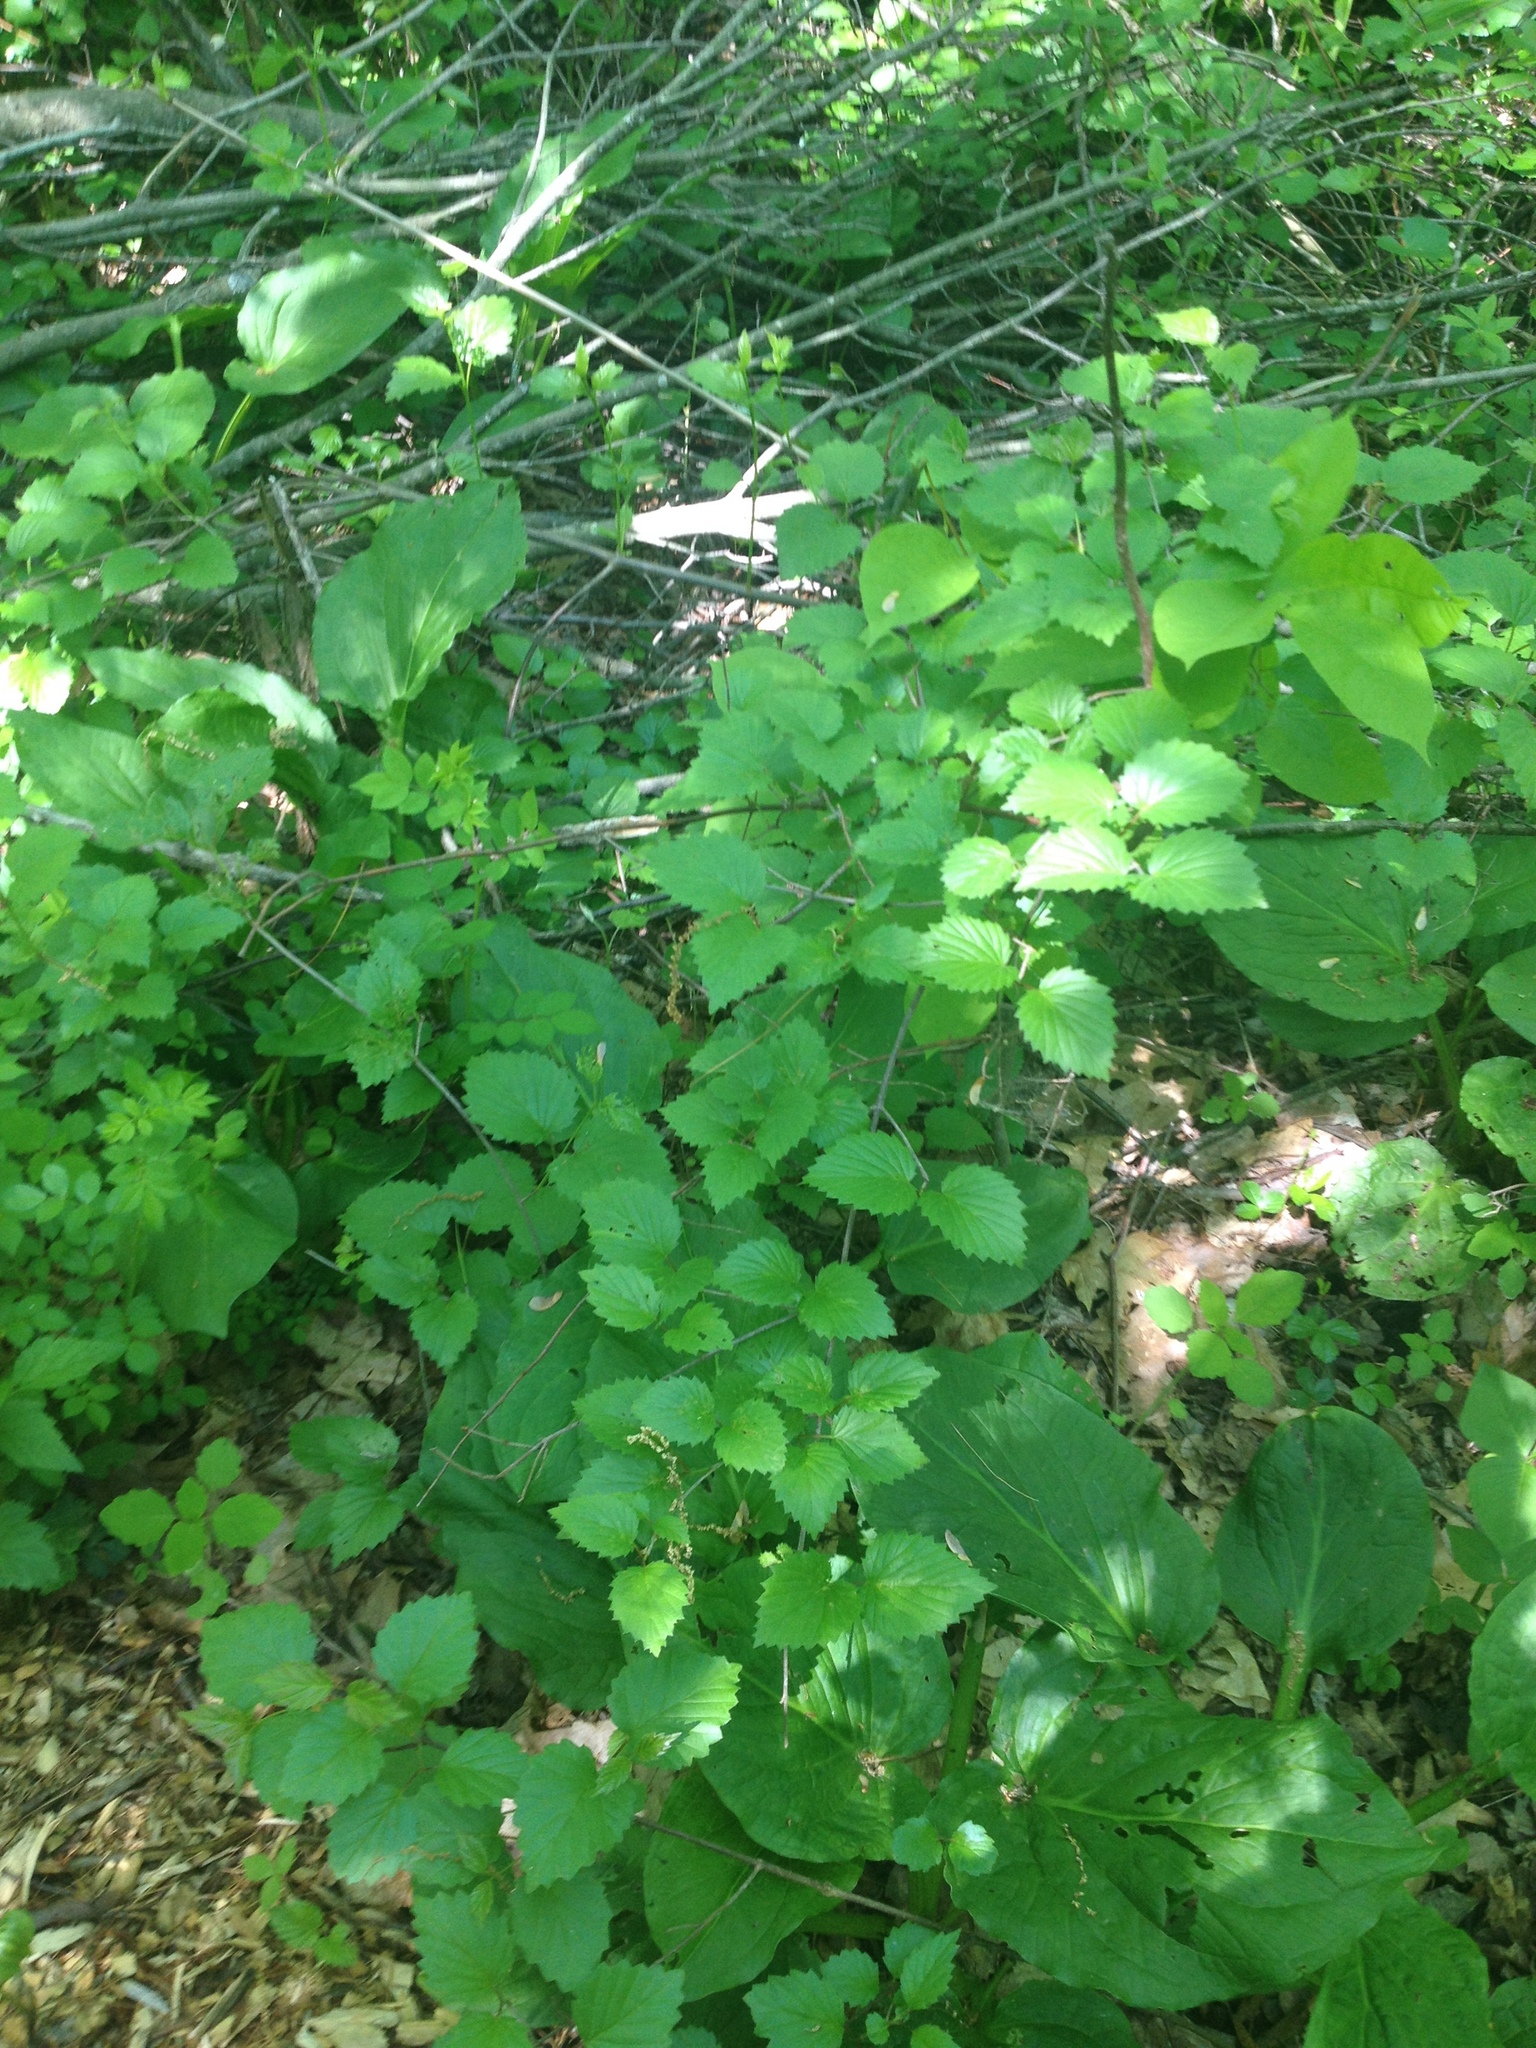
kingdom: Plantae
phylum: Tracheophyta
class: Magnoliopsida
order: Dipsacales
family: Viburnaceae
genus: Viburnum
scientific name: Viburnum dentatum
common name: Arrow-wood
